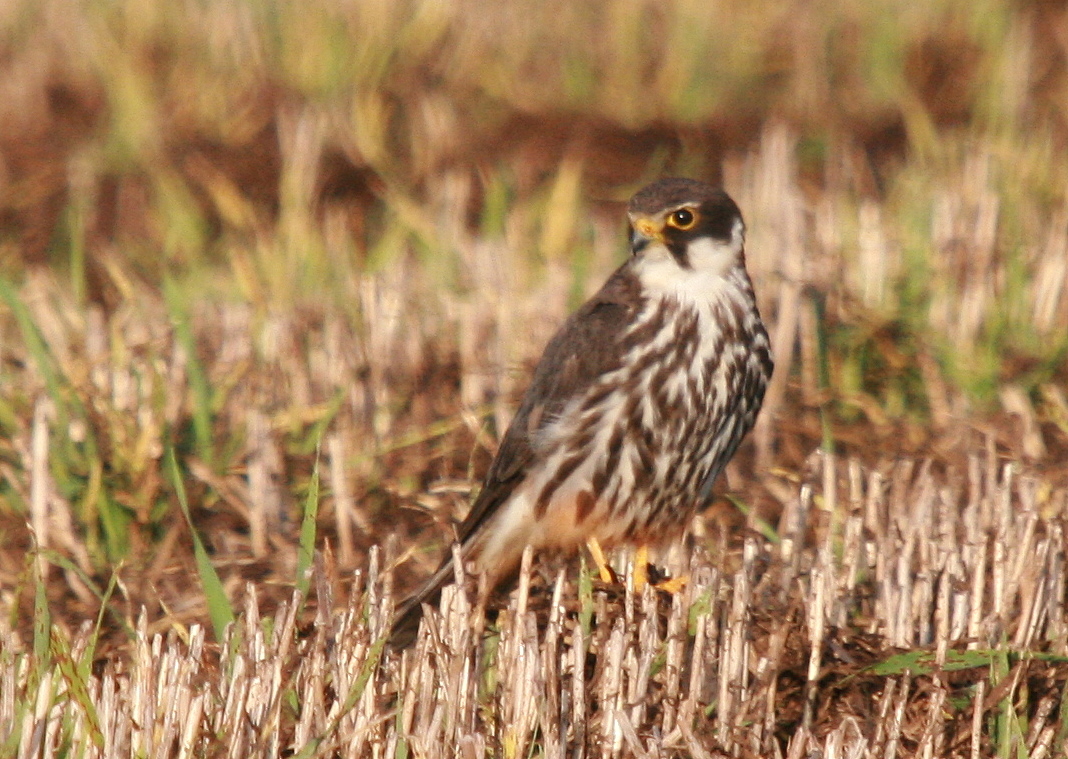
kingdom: Animalia
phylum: Chordata
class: Aves
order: Falconiformes
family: Falconidae
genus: Falco
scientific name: Falco subbuteo
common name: Eurasian hobby
